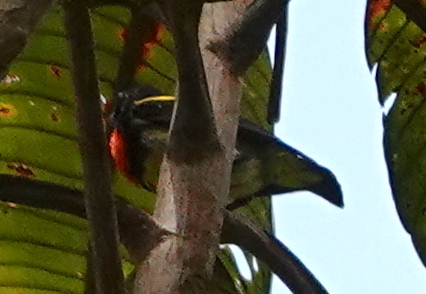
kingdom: Animalia
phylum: Chordata
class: Aves
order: Passeriformes
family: Dicaeidae
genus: Prionochilus
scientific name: Prionochilus thoracicus
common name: Scarlet-breasted flowerpecker
